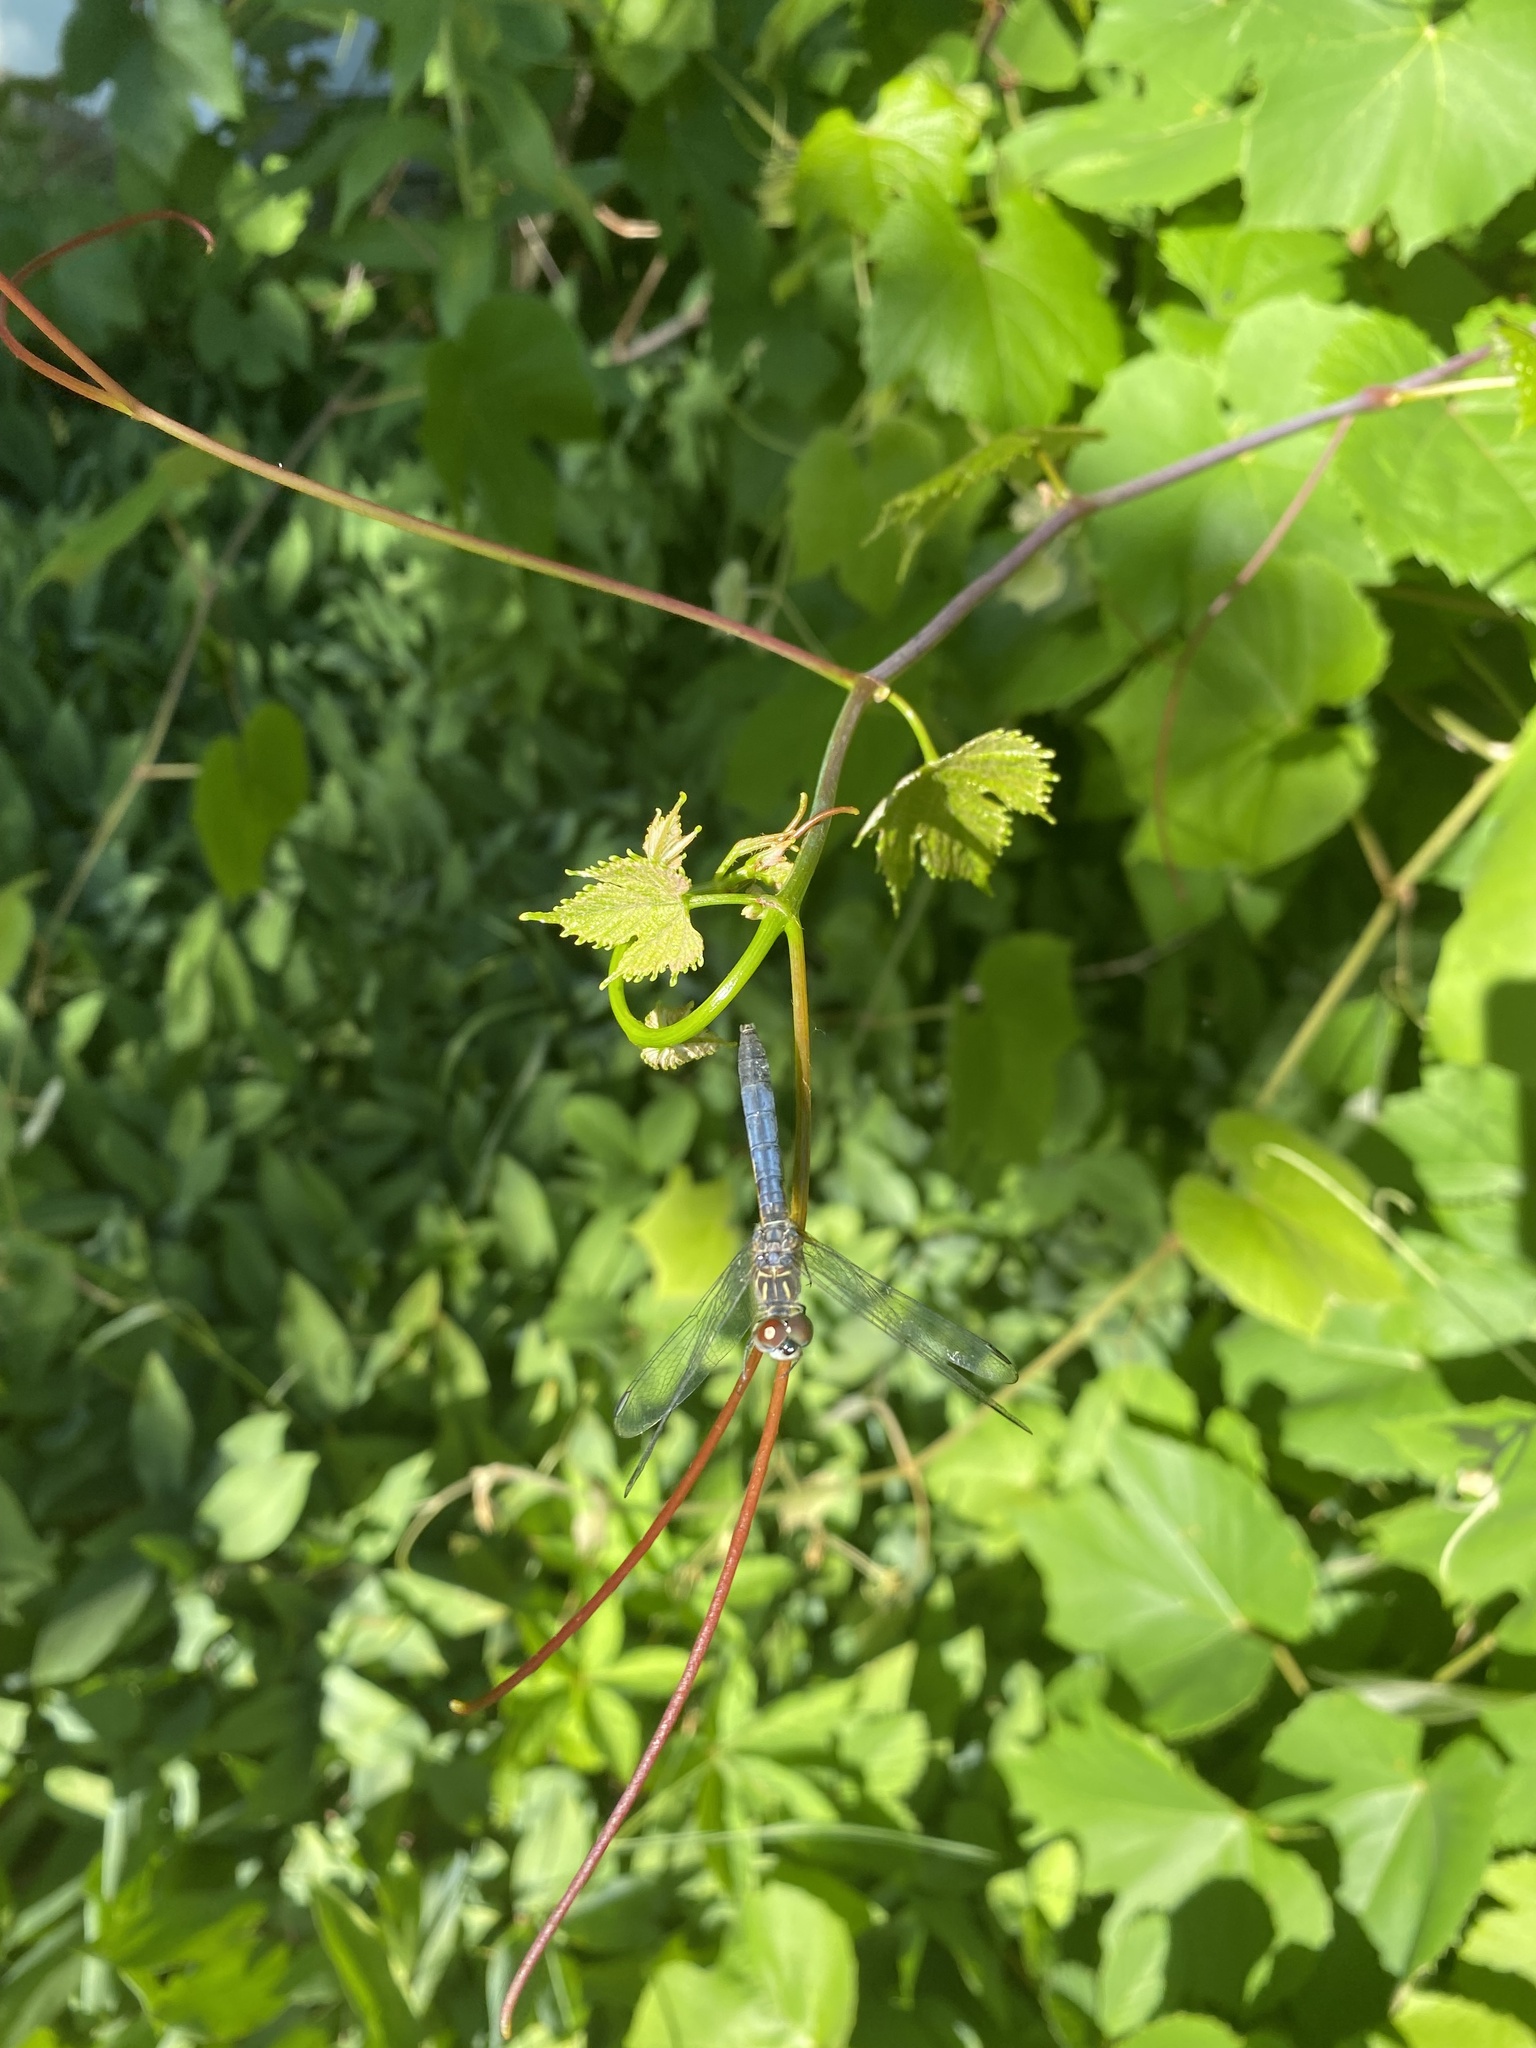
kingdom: Animalia
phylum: Arthropoda
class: Insecta
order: Odonata
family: Libellulidae
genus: Pachydiplax
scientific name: Pachydiplax longipennis
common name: Blue dasher
